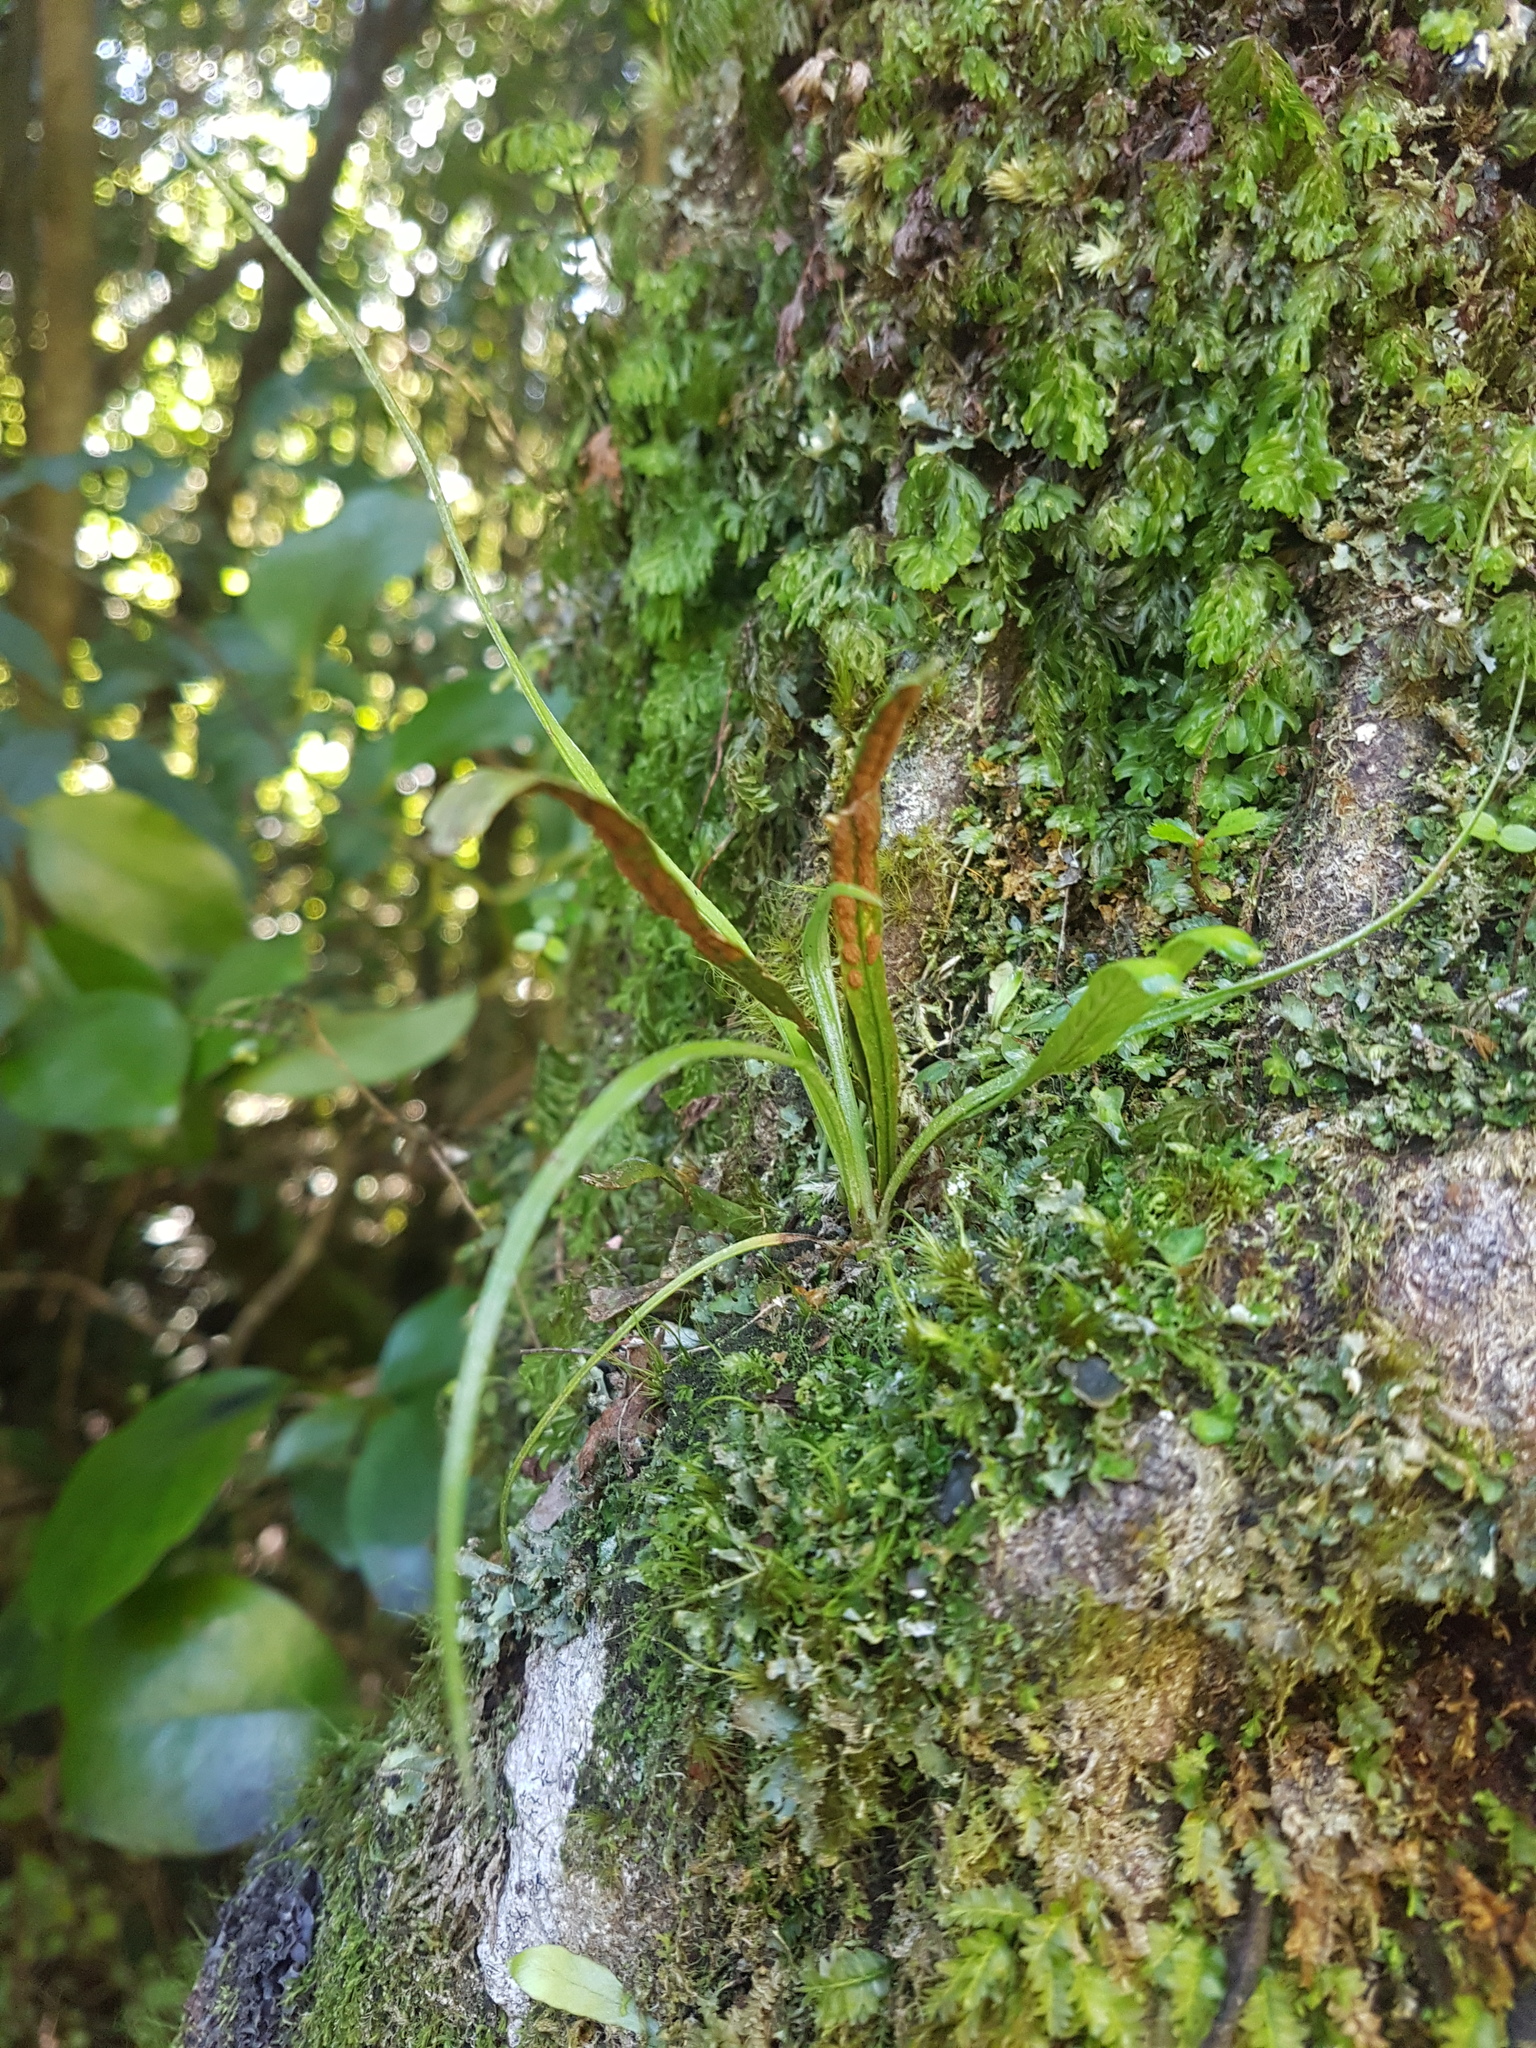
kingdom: Plantae
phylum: Tracheophyta
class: Polypodiopsida
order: Polypodiales
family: Polypodiaceae
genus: Notogrammitis
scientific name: Notogrammitis angustifolia
